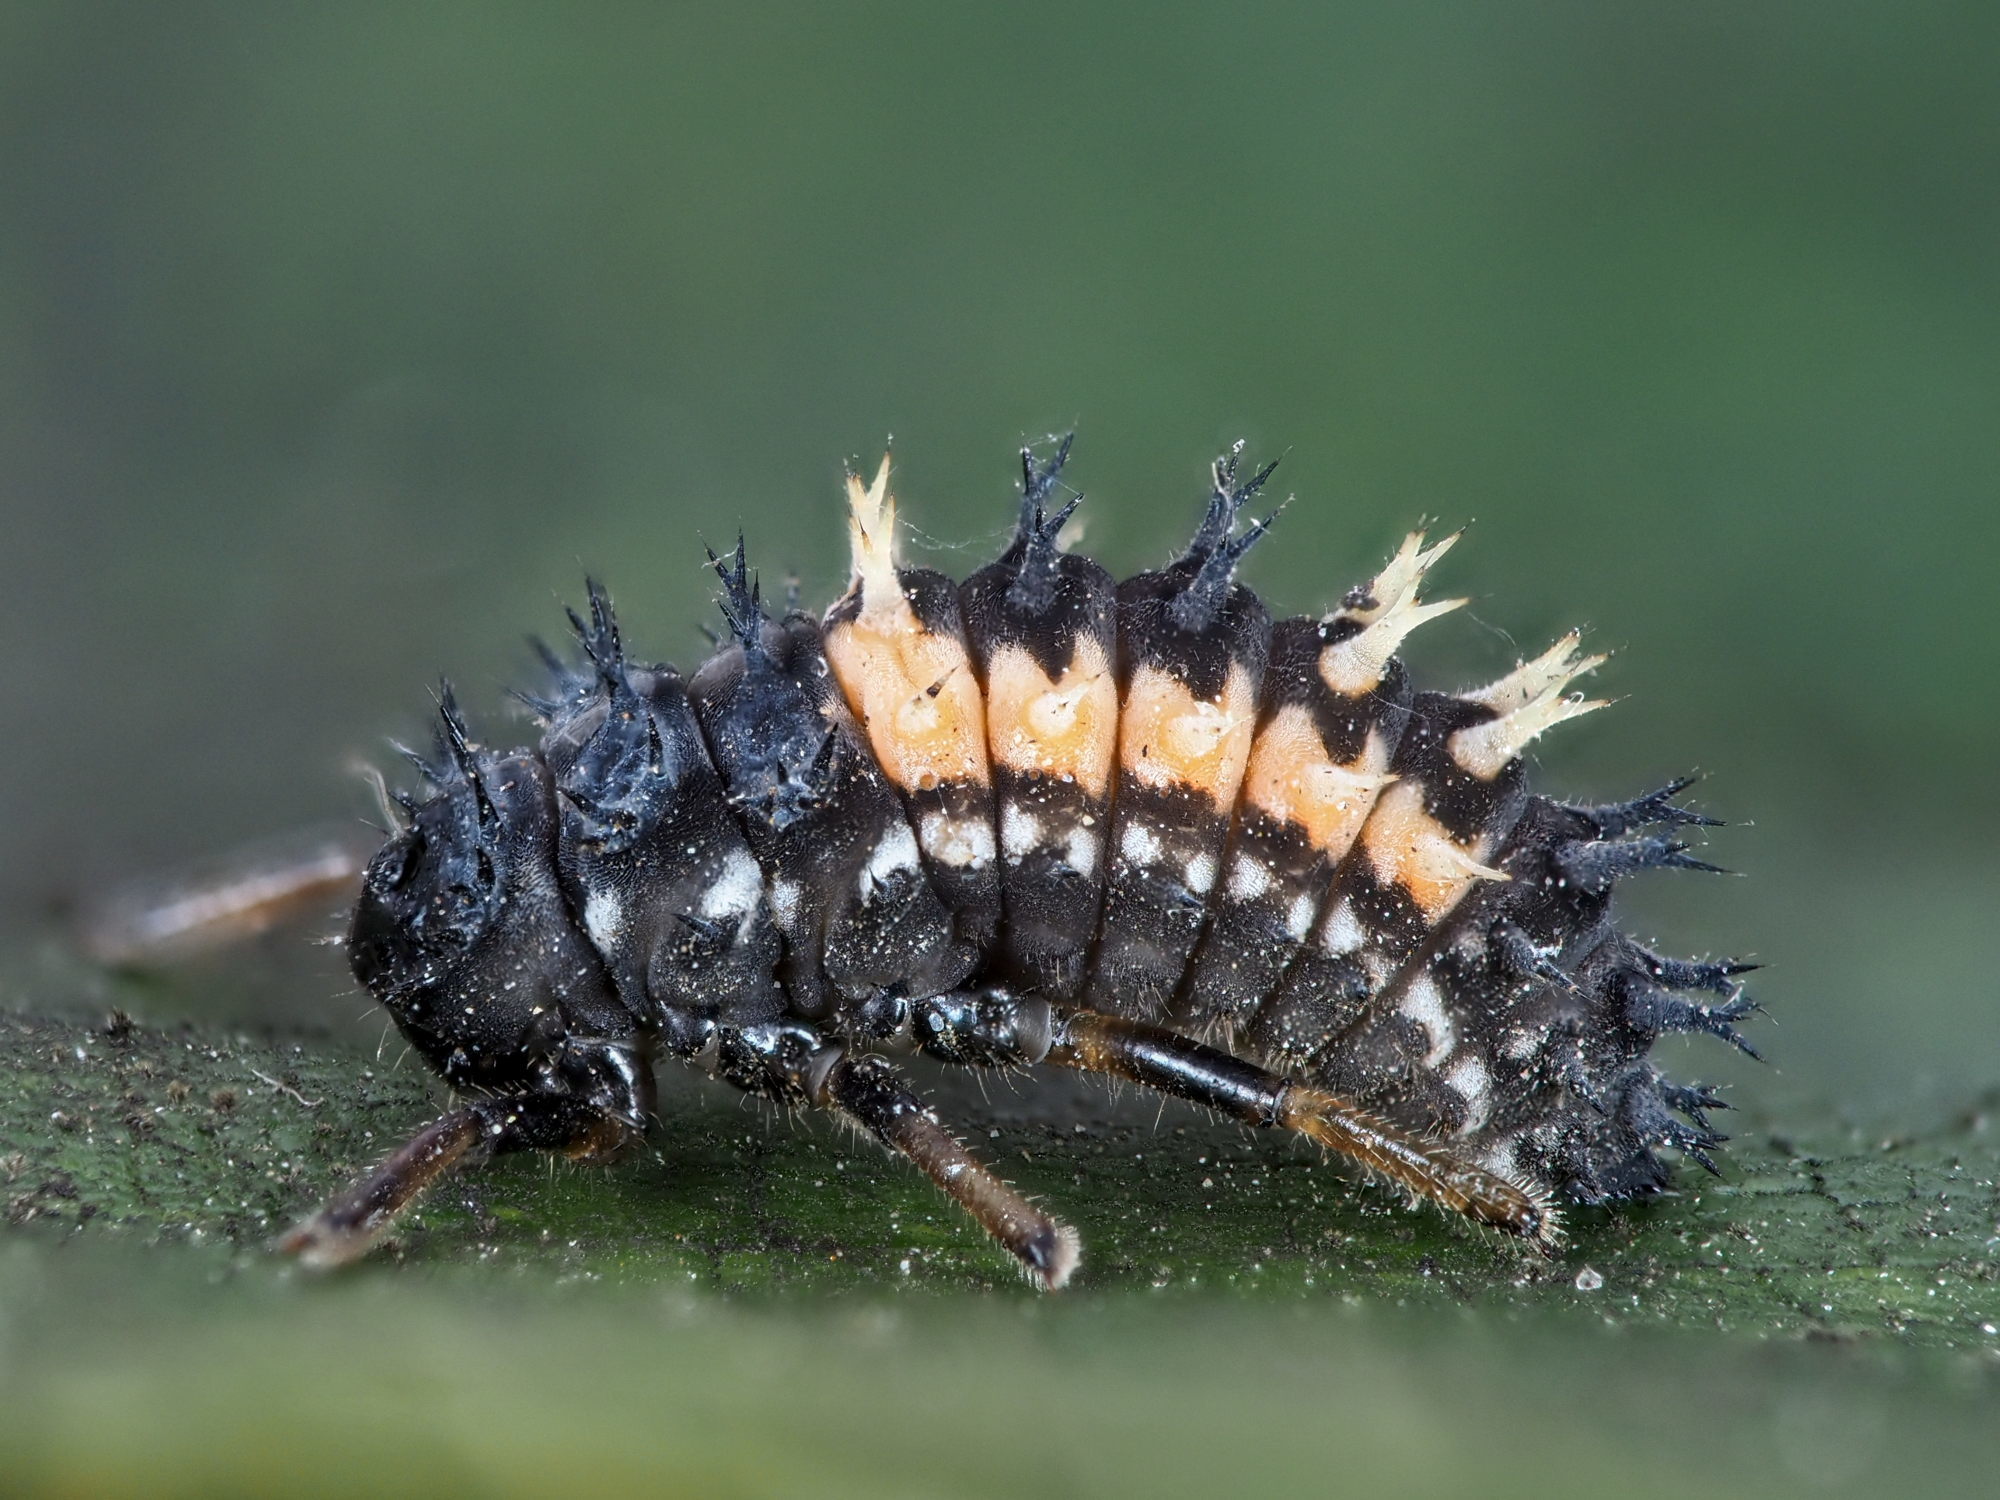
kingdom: Animalia
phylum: Arthropoda
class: Insecta
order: Coleoptera
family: Coccinellidae
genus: Harmonia
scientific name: Harmonia axyridis
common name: Harlequin ladybird
